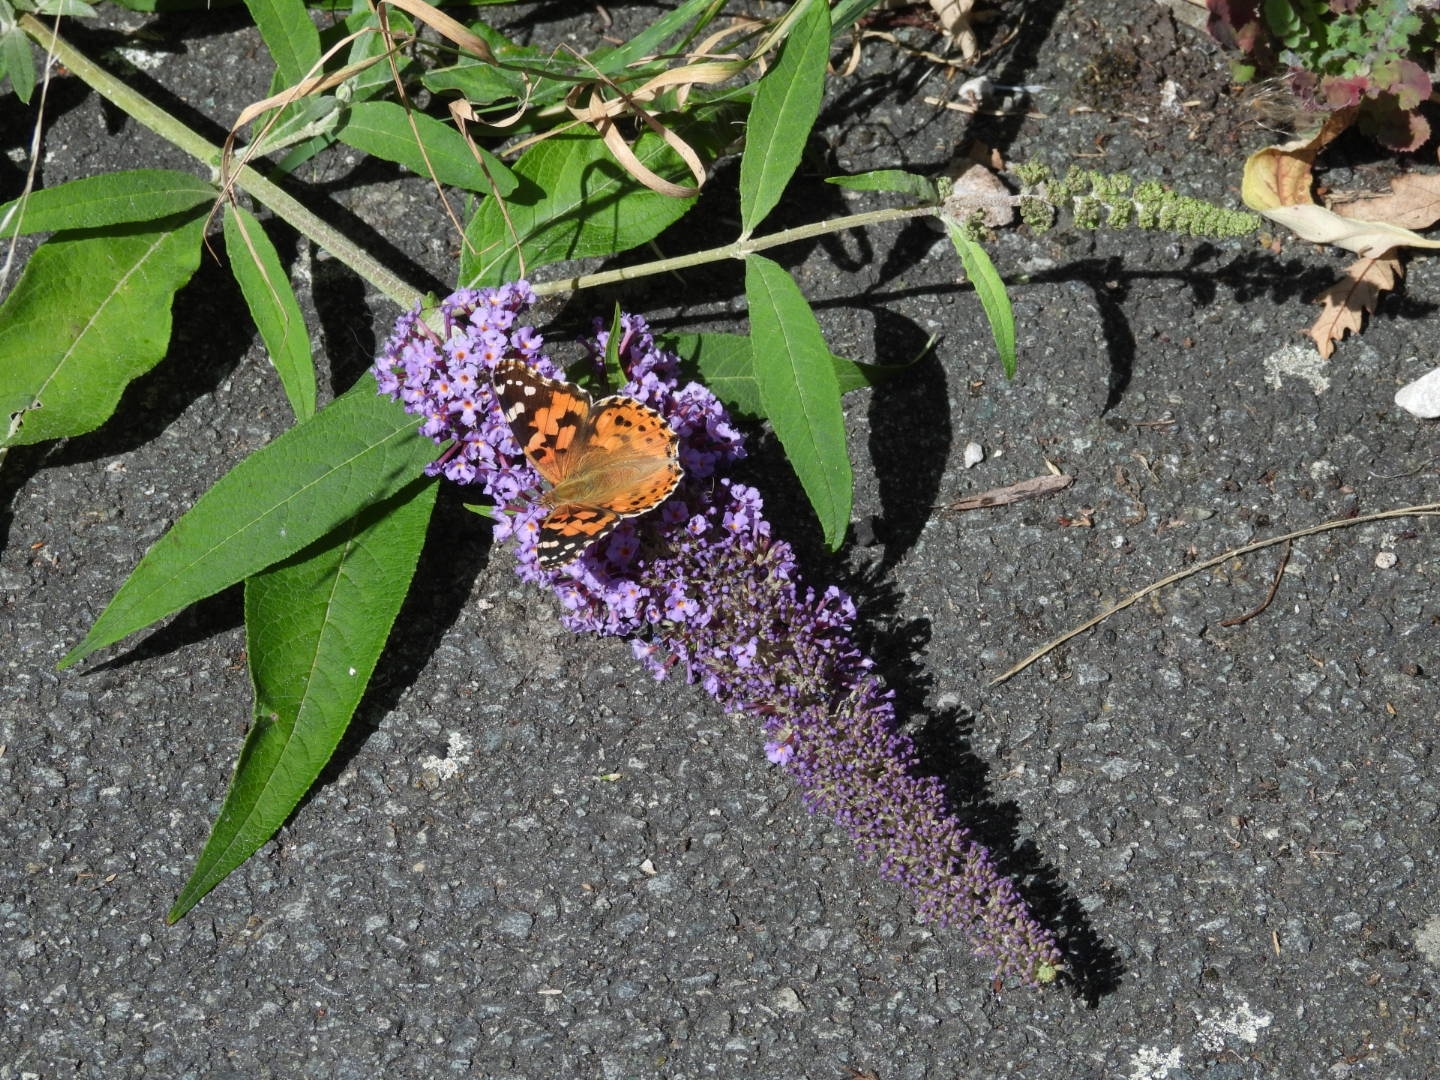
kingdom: Animalia
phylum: Arthropoda
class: Insecta
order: Lepidoptera
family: Nymphalidae
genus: Vanessa
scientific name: Vanessa cardui
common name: Painted lady
